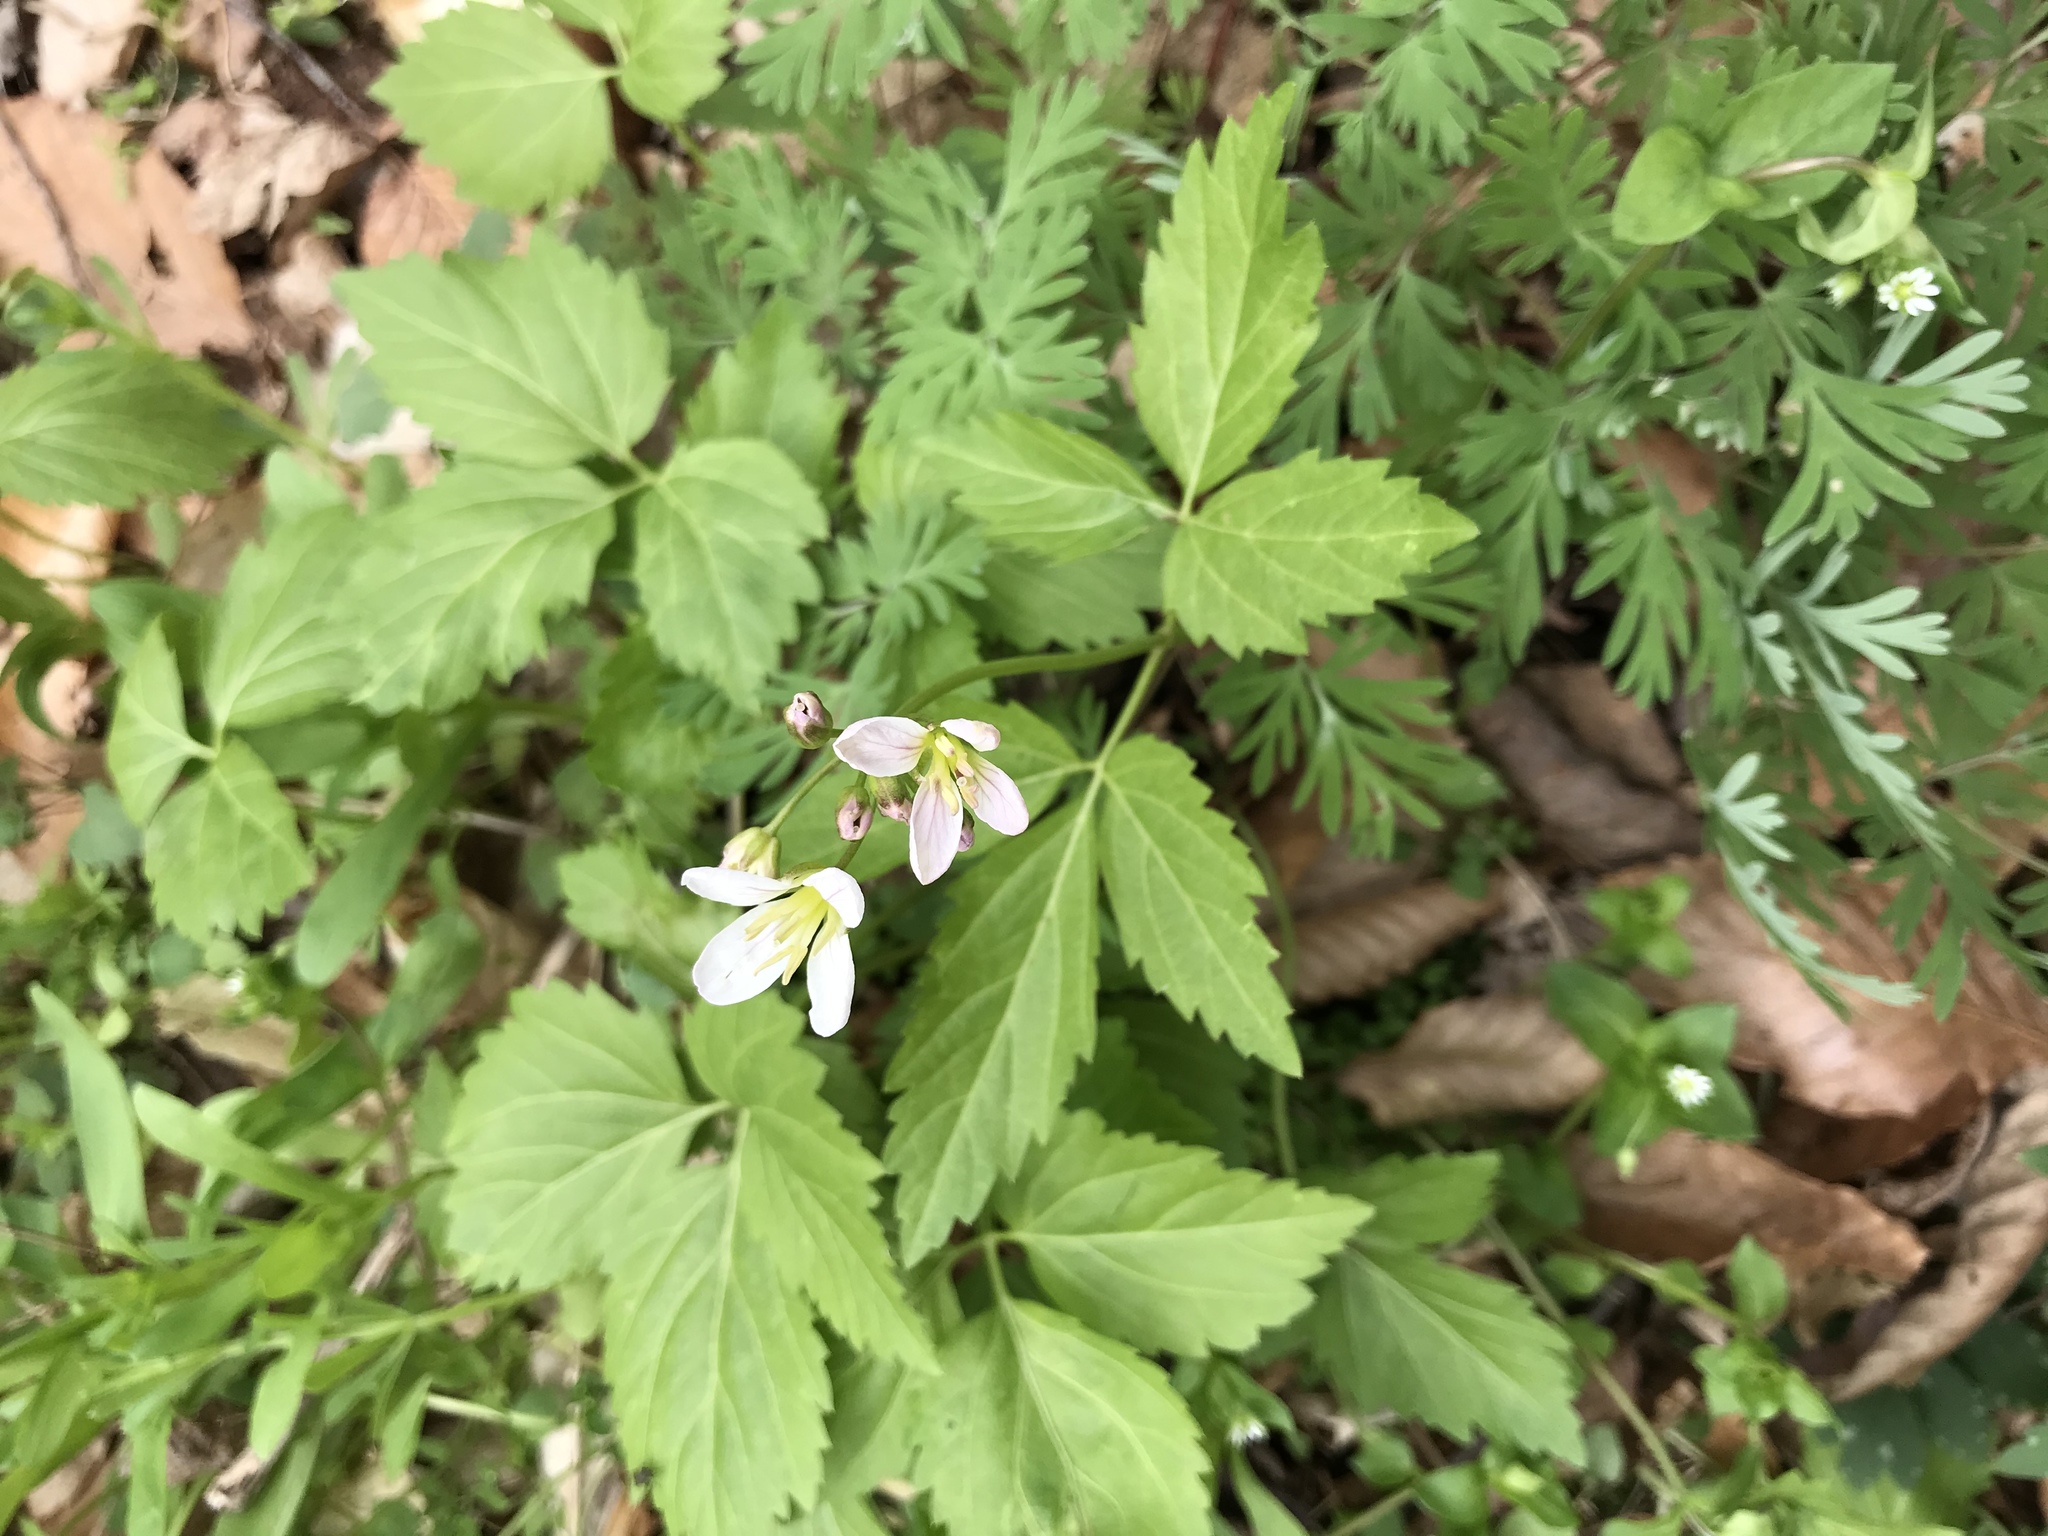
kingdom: Plantae
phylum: Tracheophyta
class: Magnoliopsida
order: Brassicales
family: Brassicaceae
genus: Cardamine
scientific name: Cardamine diphylla
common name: Broad-leaved toothwort
